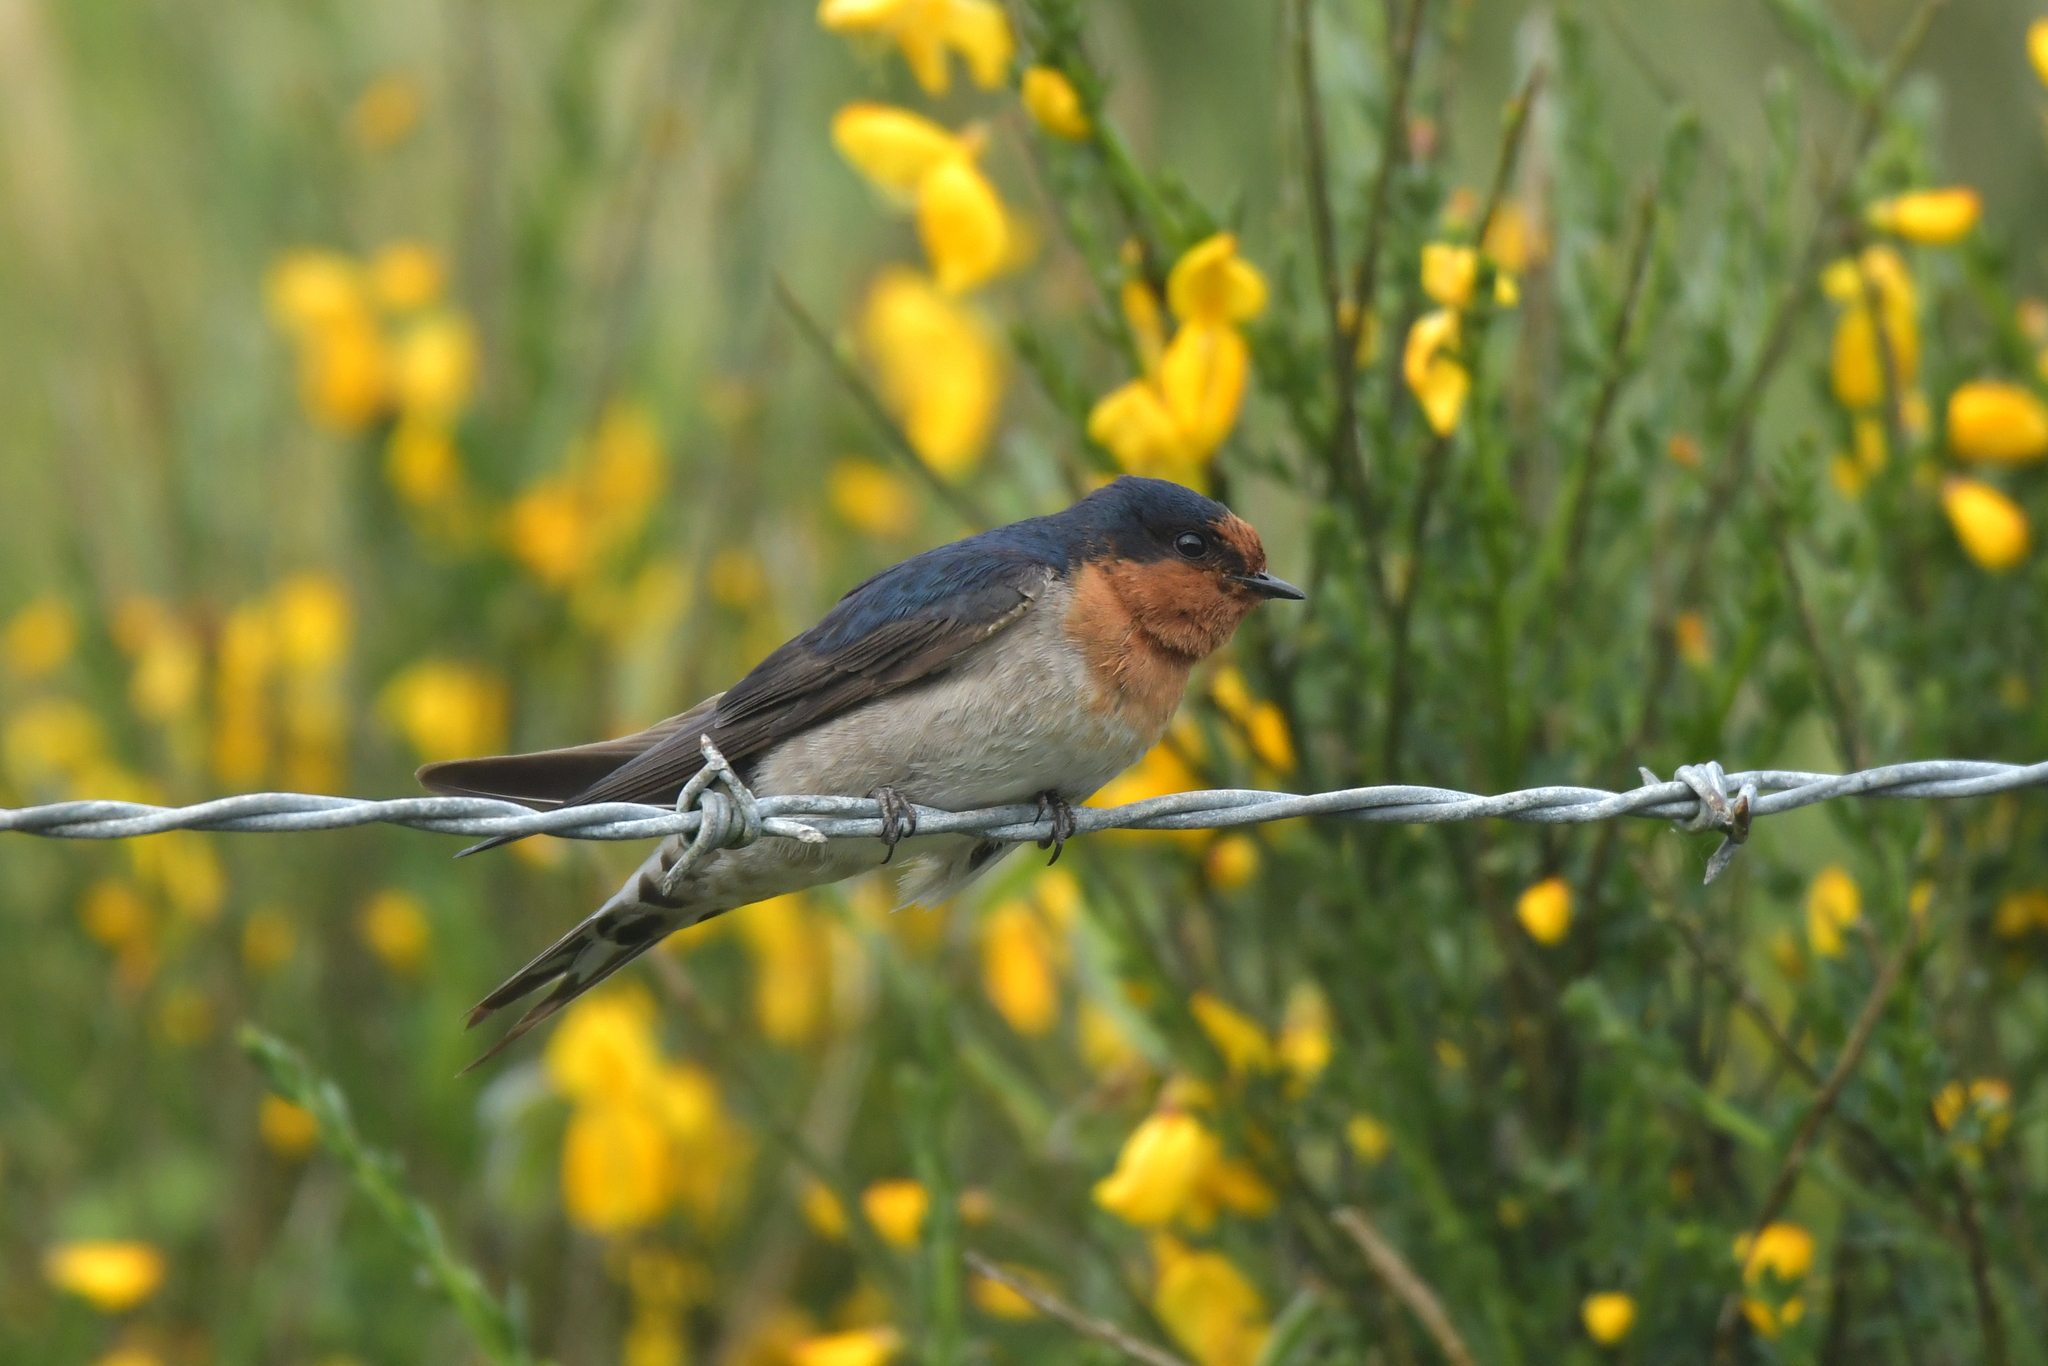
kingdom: Animalia
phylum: Chordata
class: Aves
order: Passeriformes
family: Hirundinidae
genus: Hirundo
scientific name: Hirundo neoxena
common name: Welcome swallow
